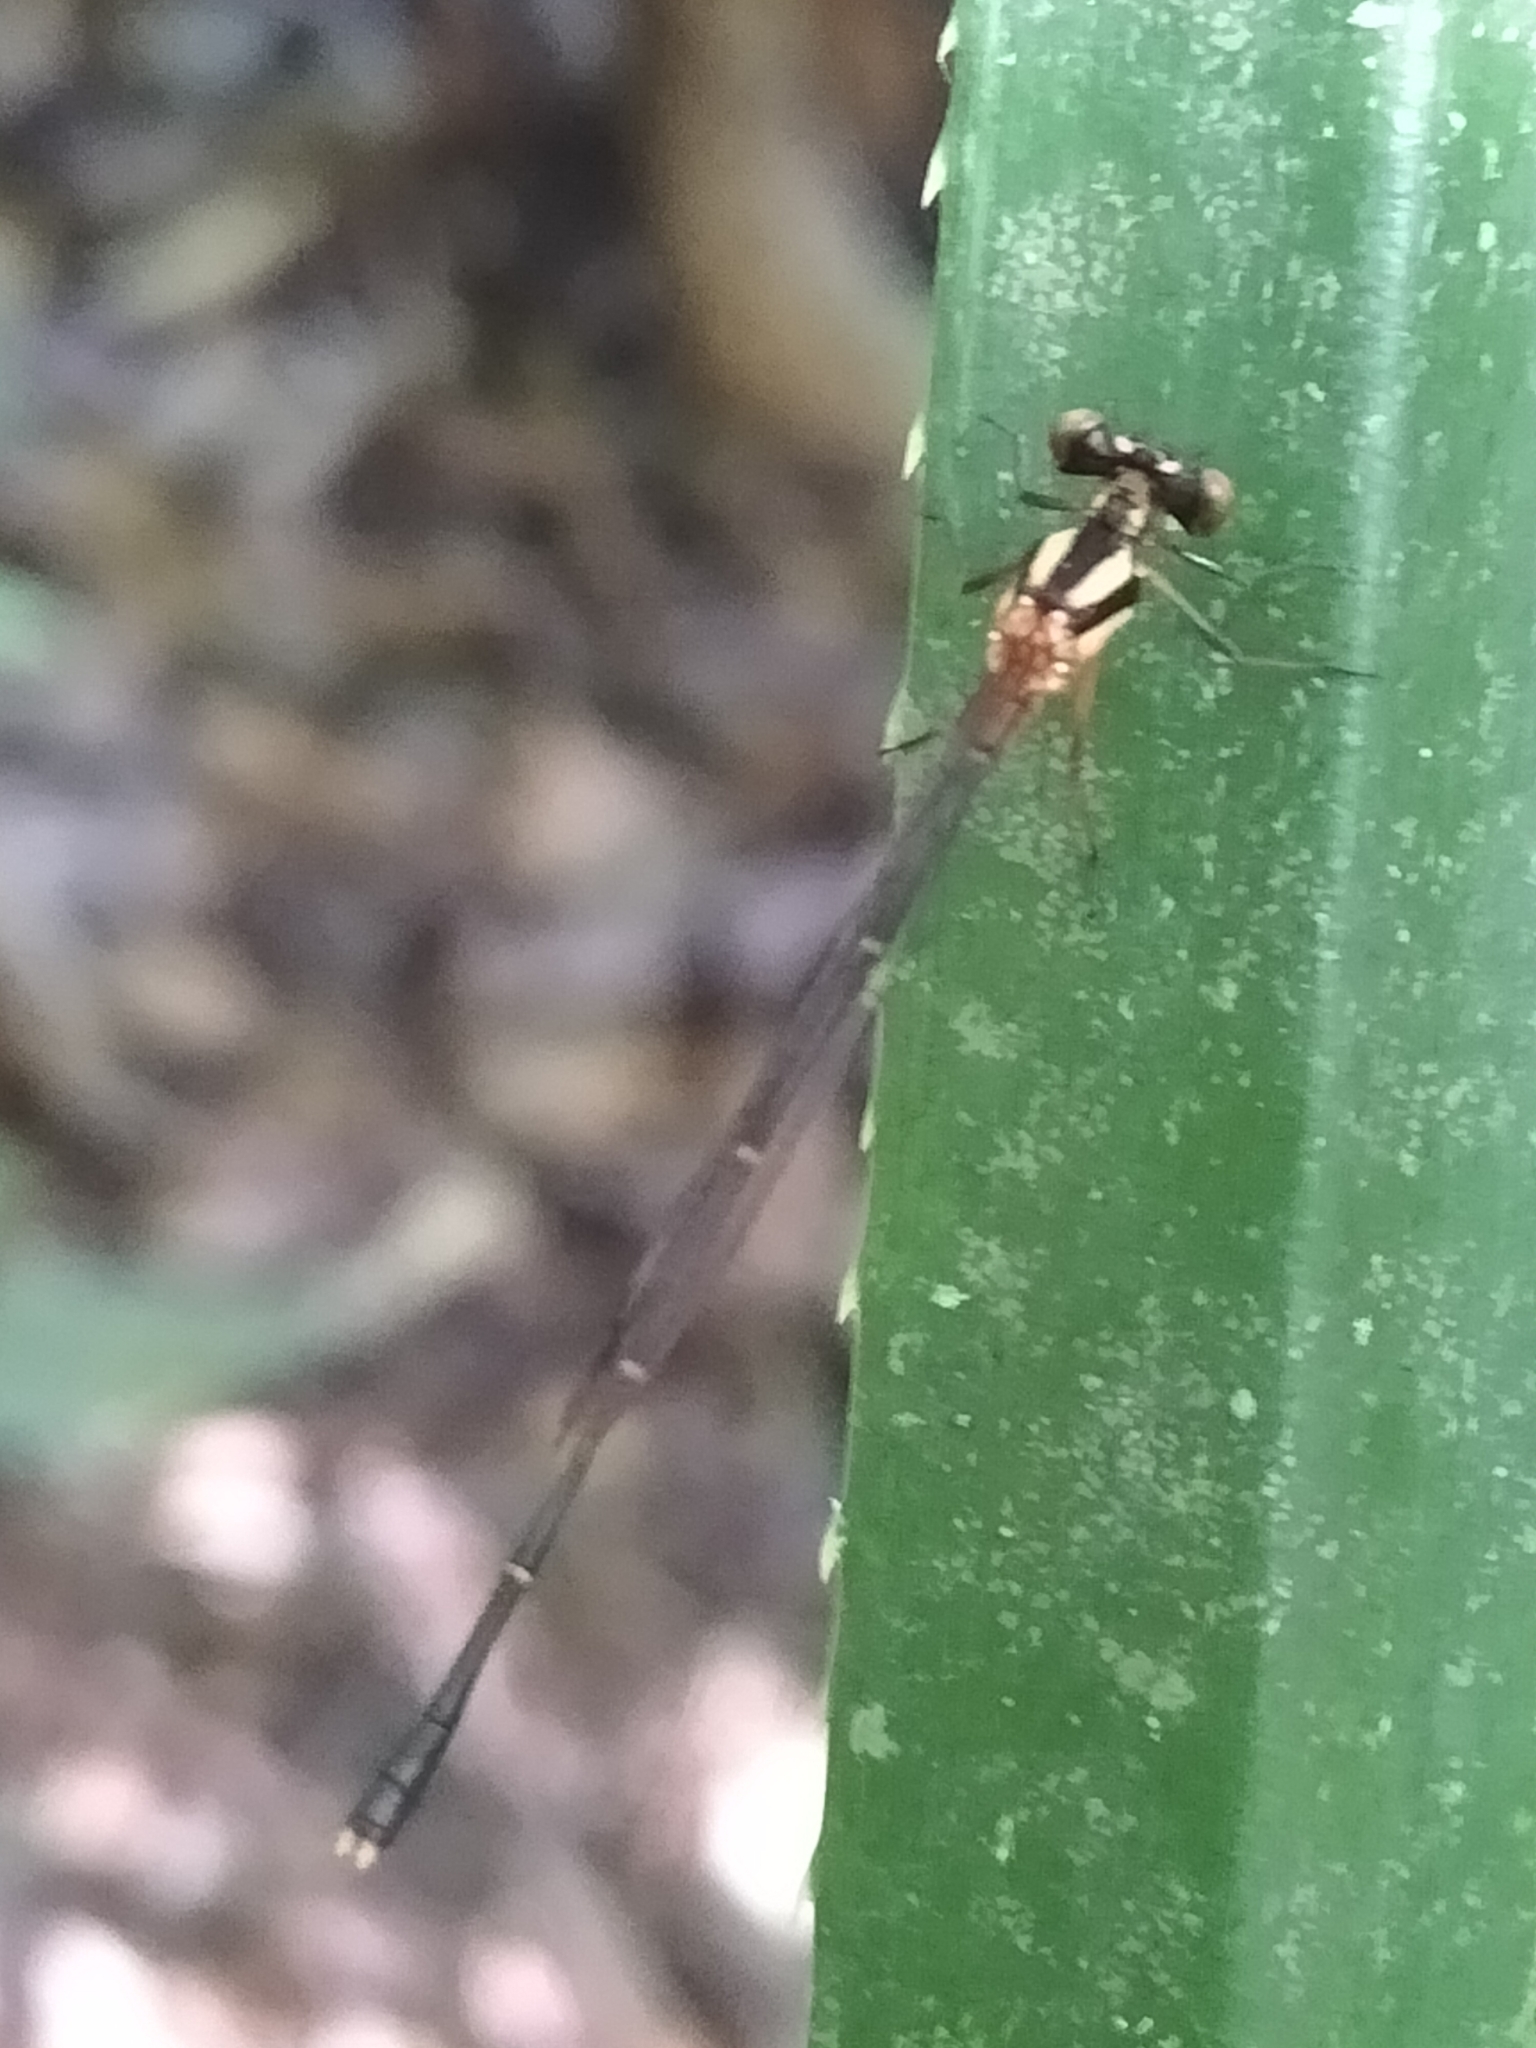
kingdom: Animalia
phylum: Arthropoda
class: Insecta
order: Odonata
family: Platycnemididae
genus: Nososticta
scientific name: Nososticta solida
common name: Orange threadtail
